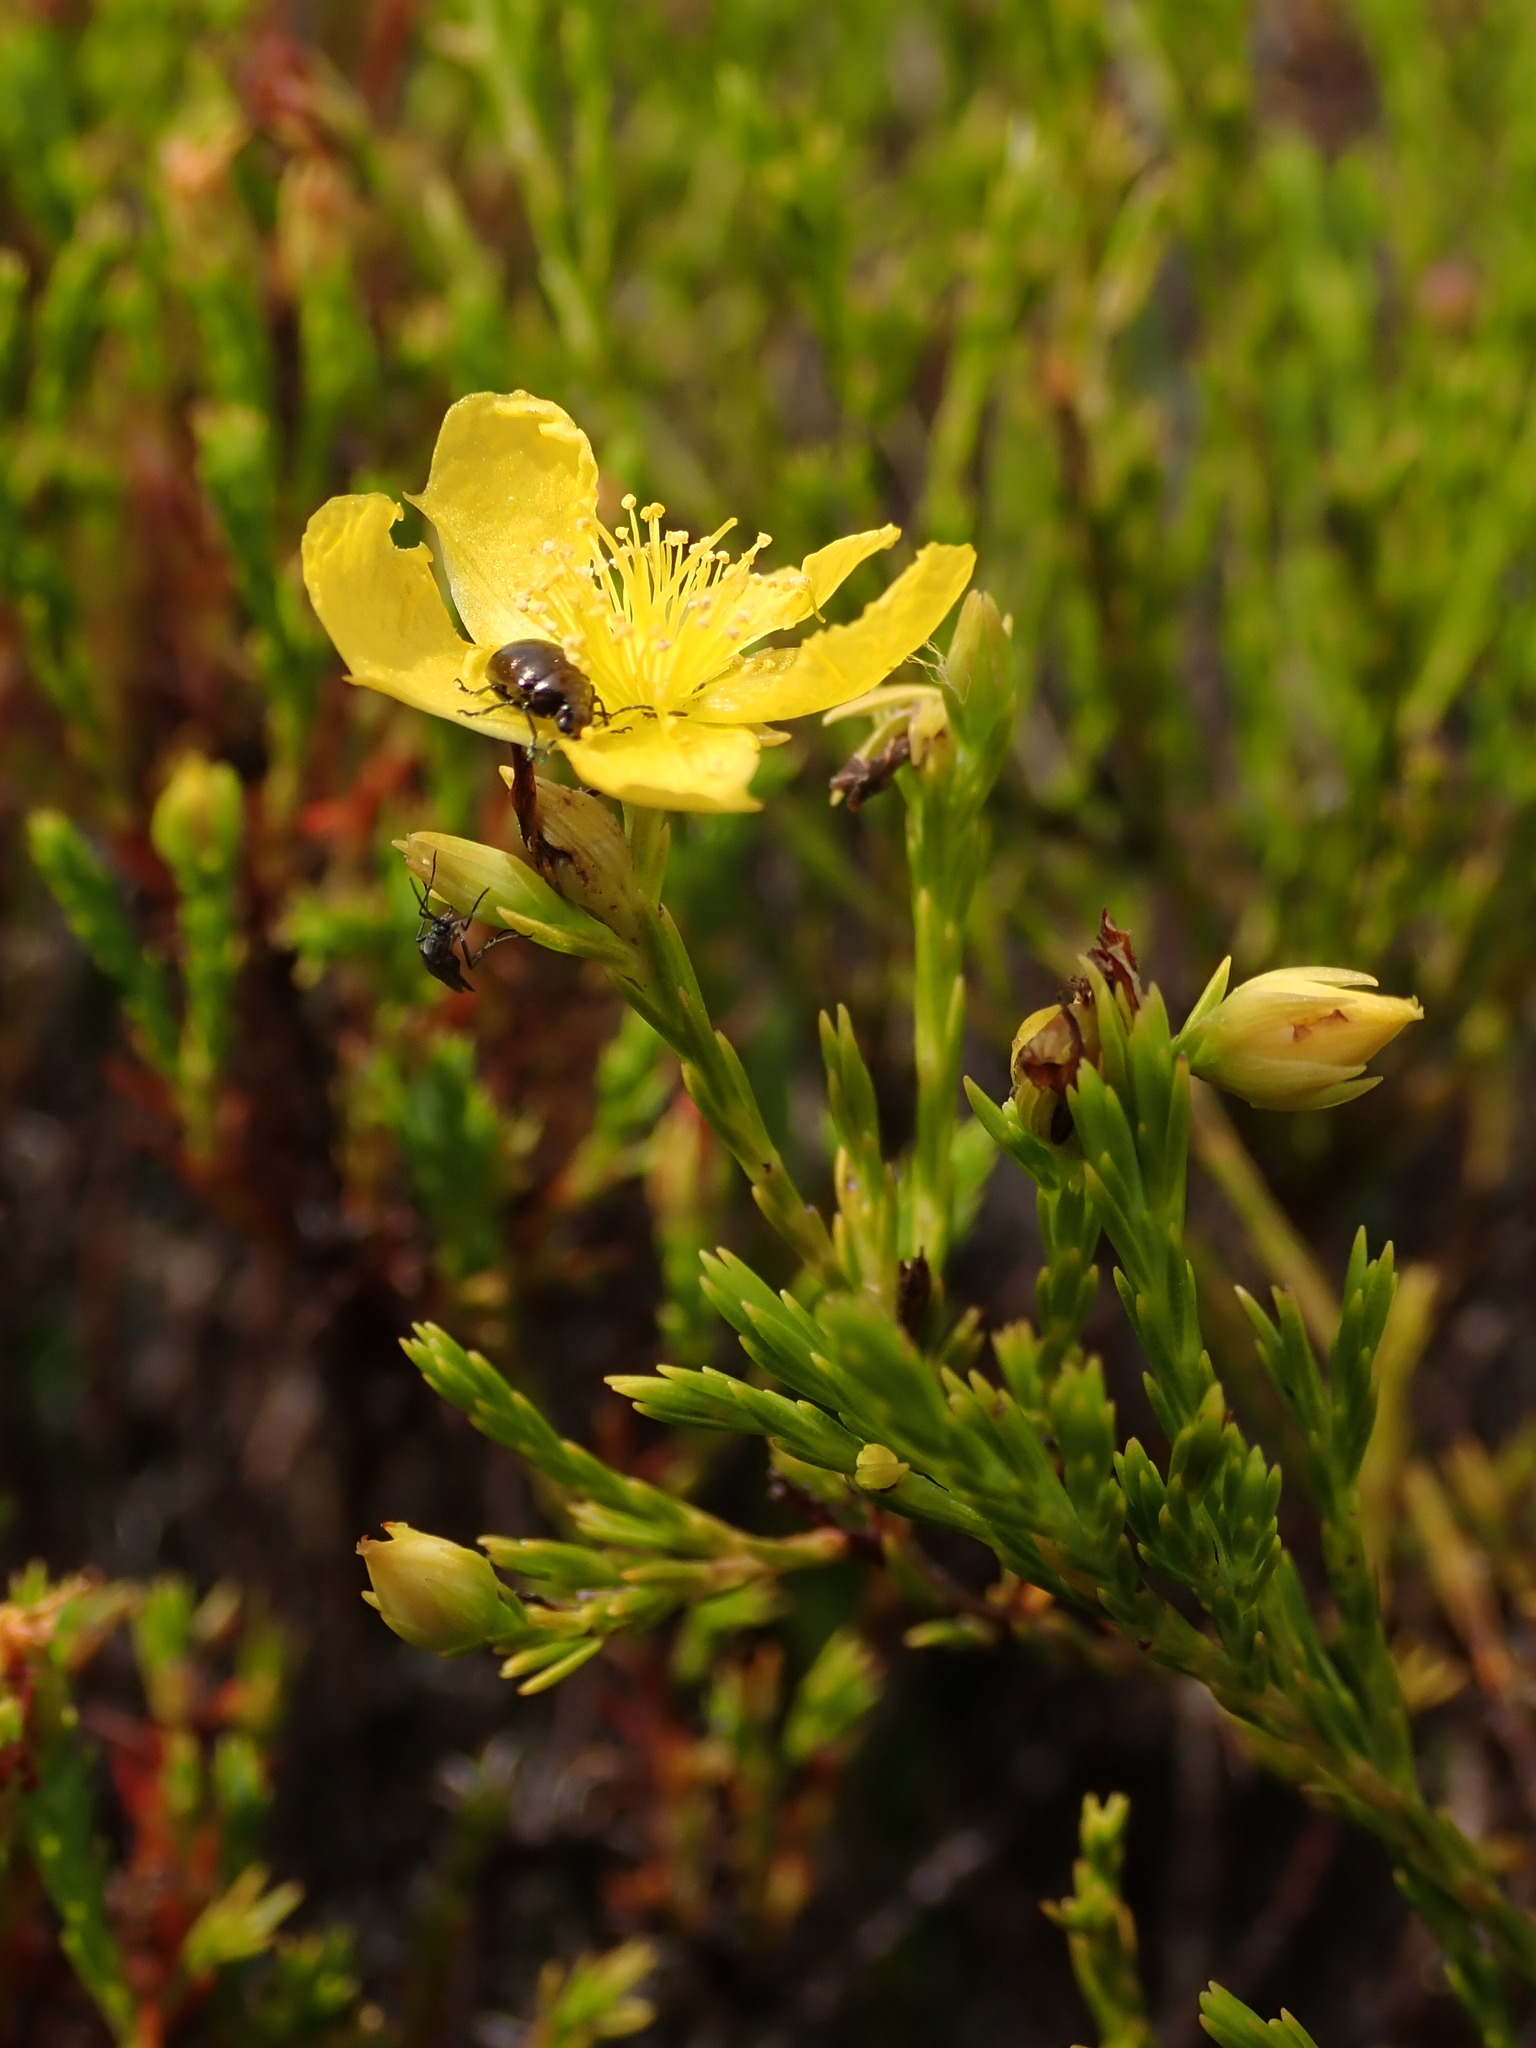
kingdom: Plantae
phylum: Tracheophyta
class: Magnoliopsida
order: Malpighiales
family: Hypericaceae
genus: Hypericum
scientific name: Hypericum laricifolium
